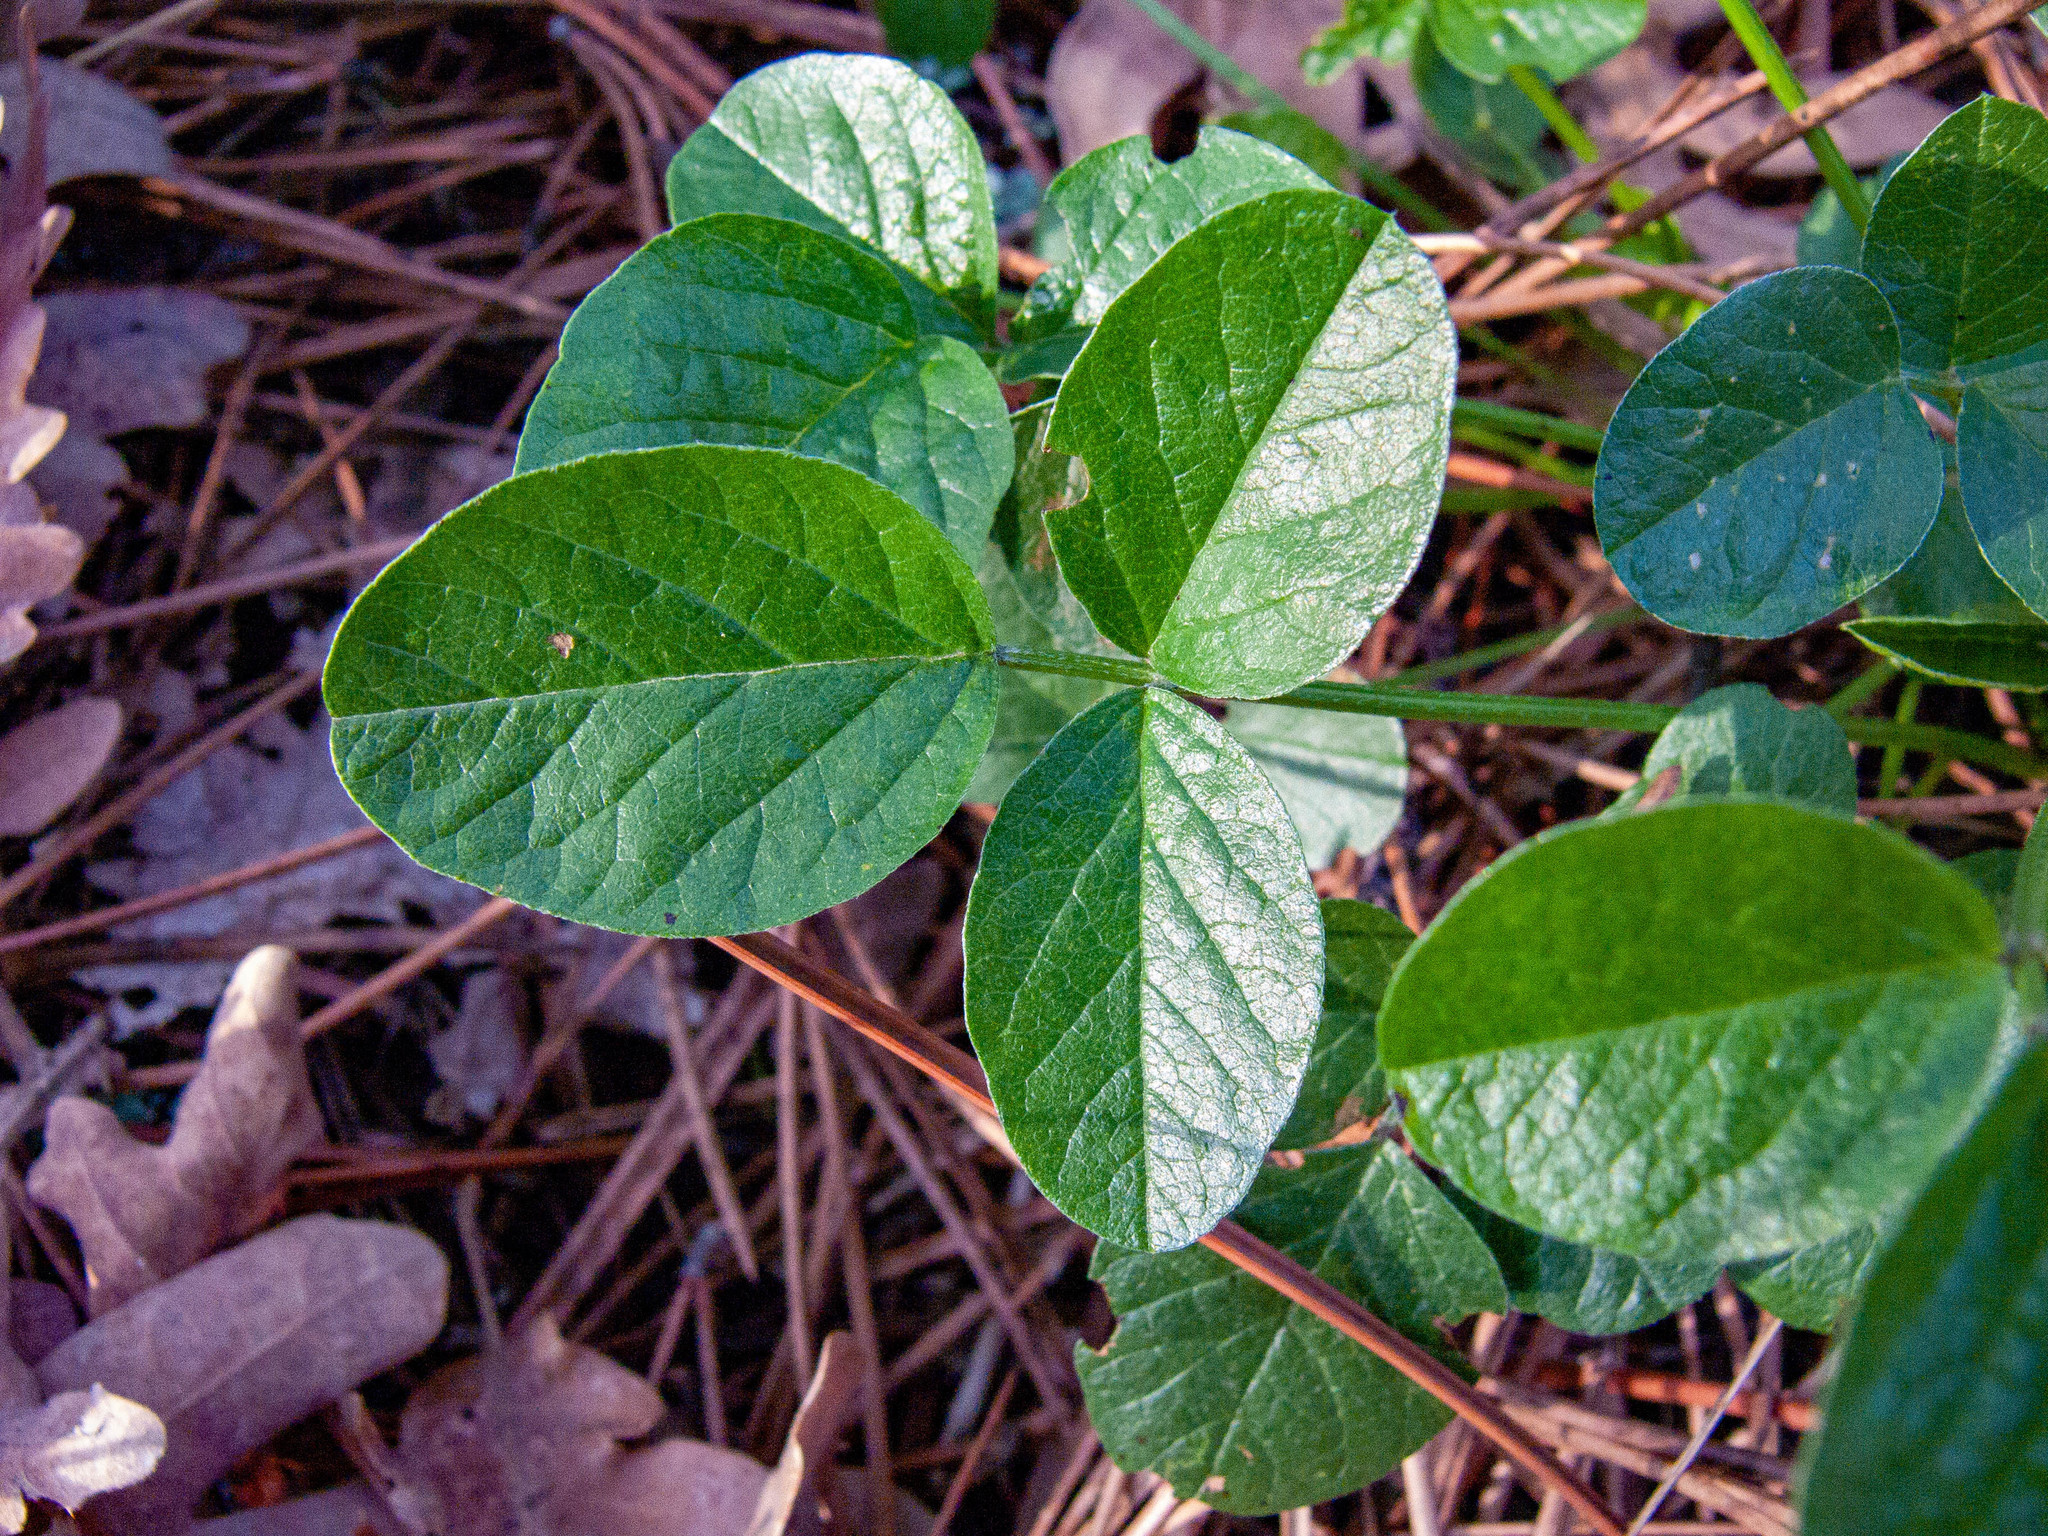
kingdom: Plantae
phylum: Tracheophyta
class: Magnoliopsida
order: Fabales
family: Fabaceae
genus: Bituminaria
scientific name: Bituminaria bituminosa
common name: Arabian pea
